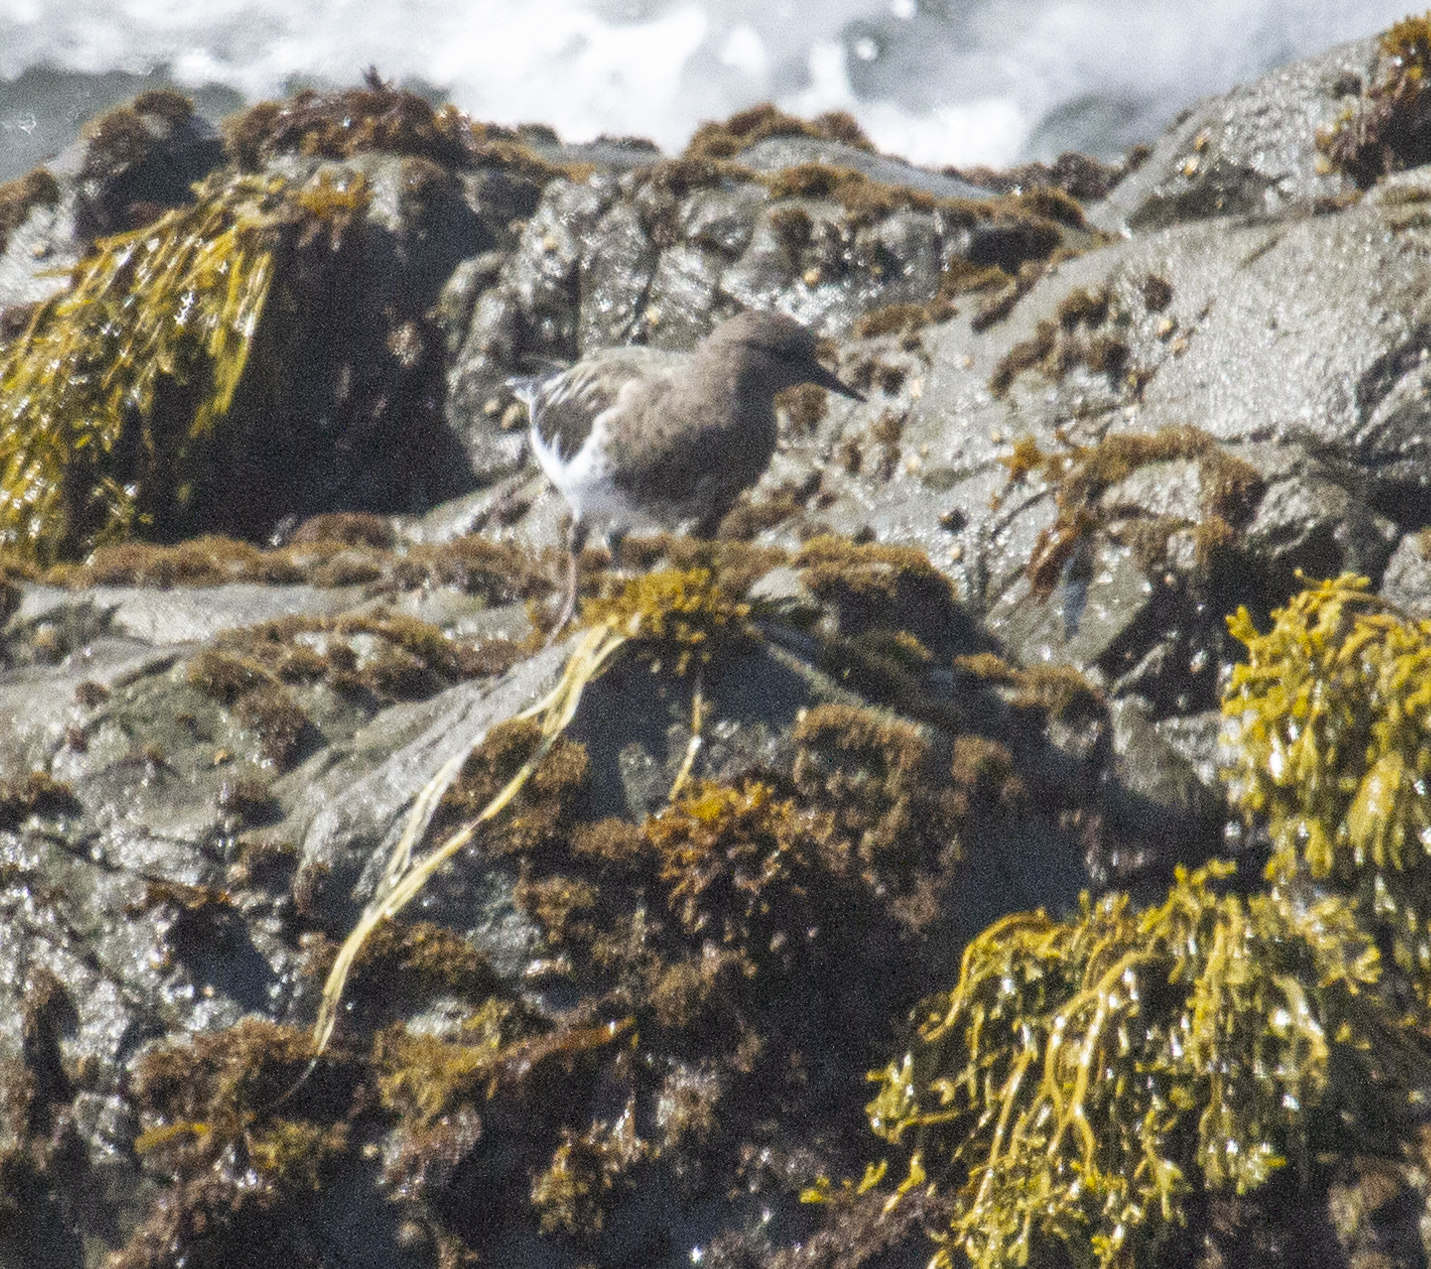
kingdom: Animalia
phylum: Chordata
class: Aves
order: Charadriiformes
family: Scolopacidae
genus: Arenaria
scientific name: Arenaria melanocephala
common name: Black turnstone
